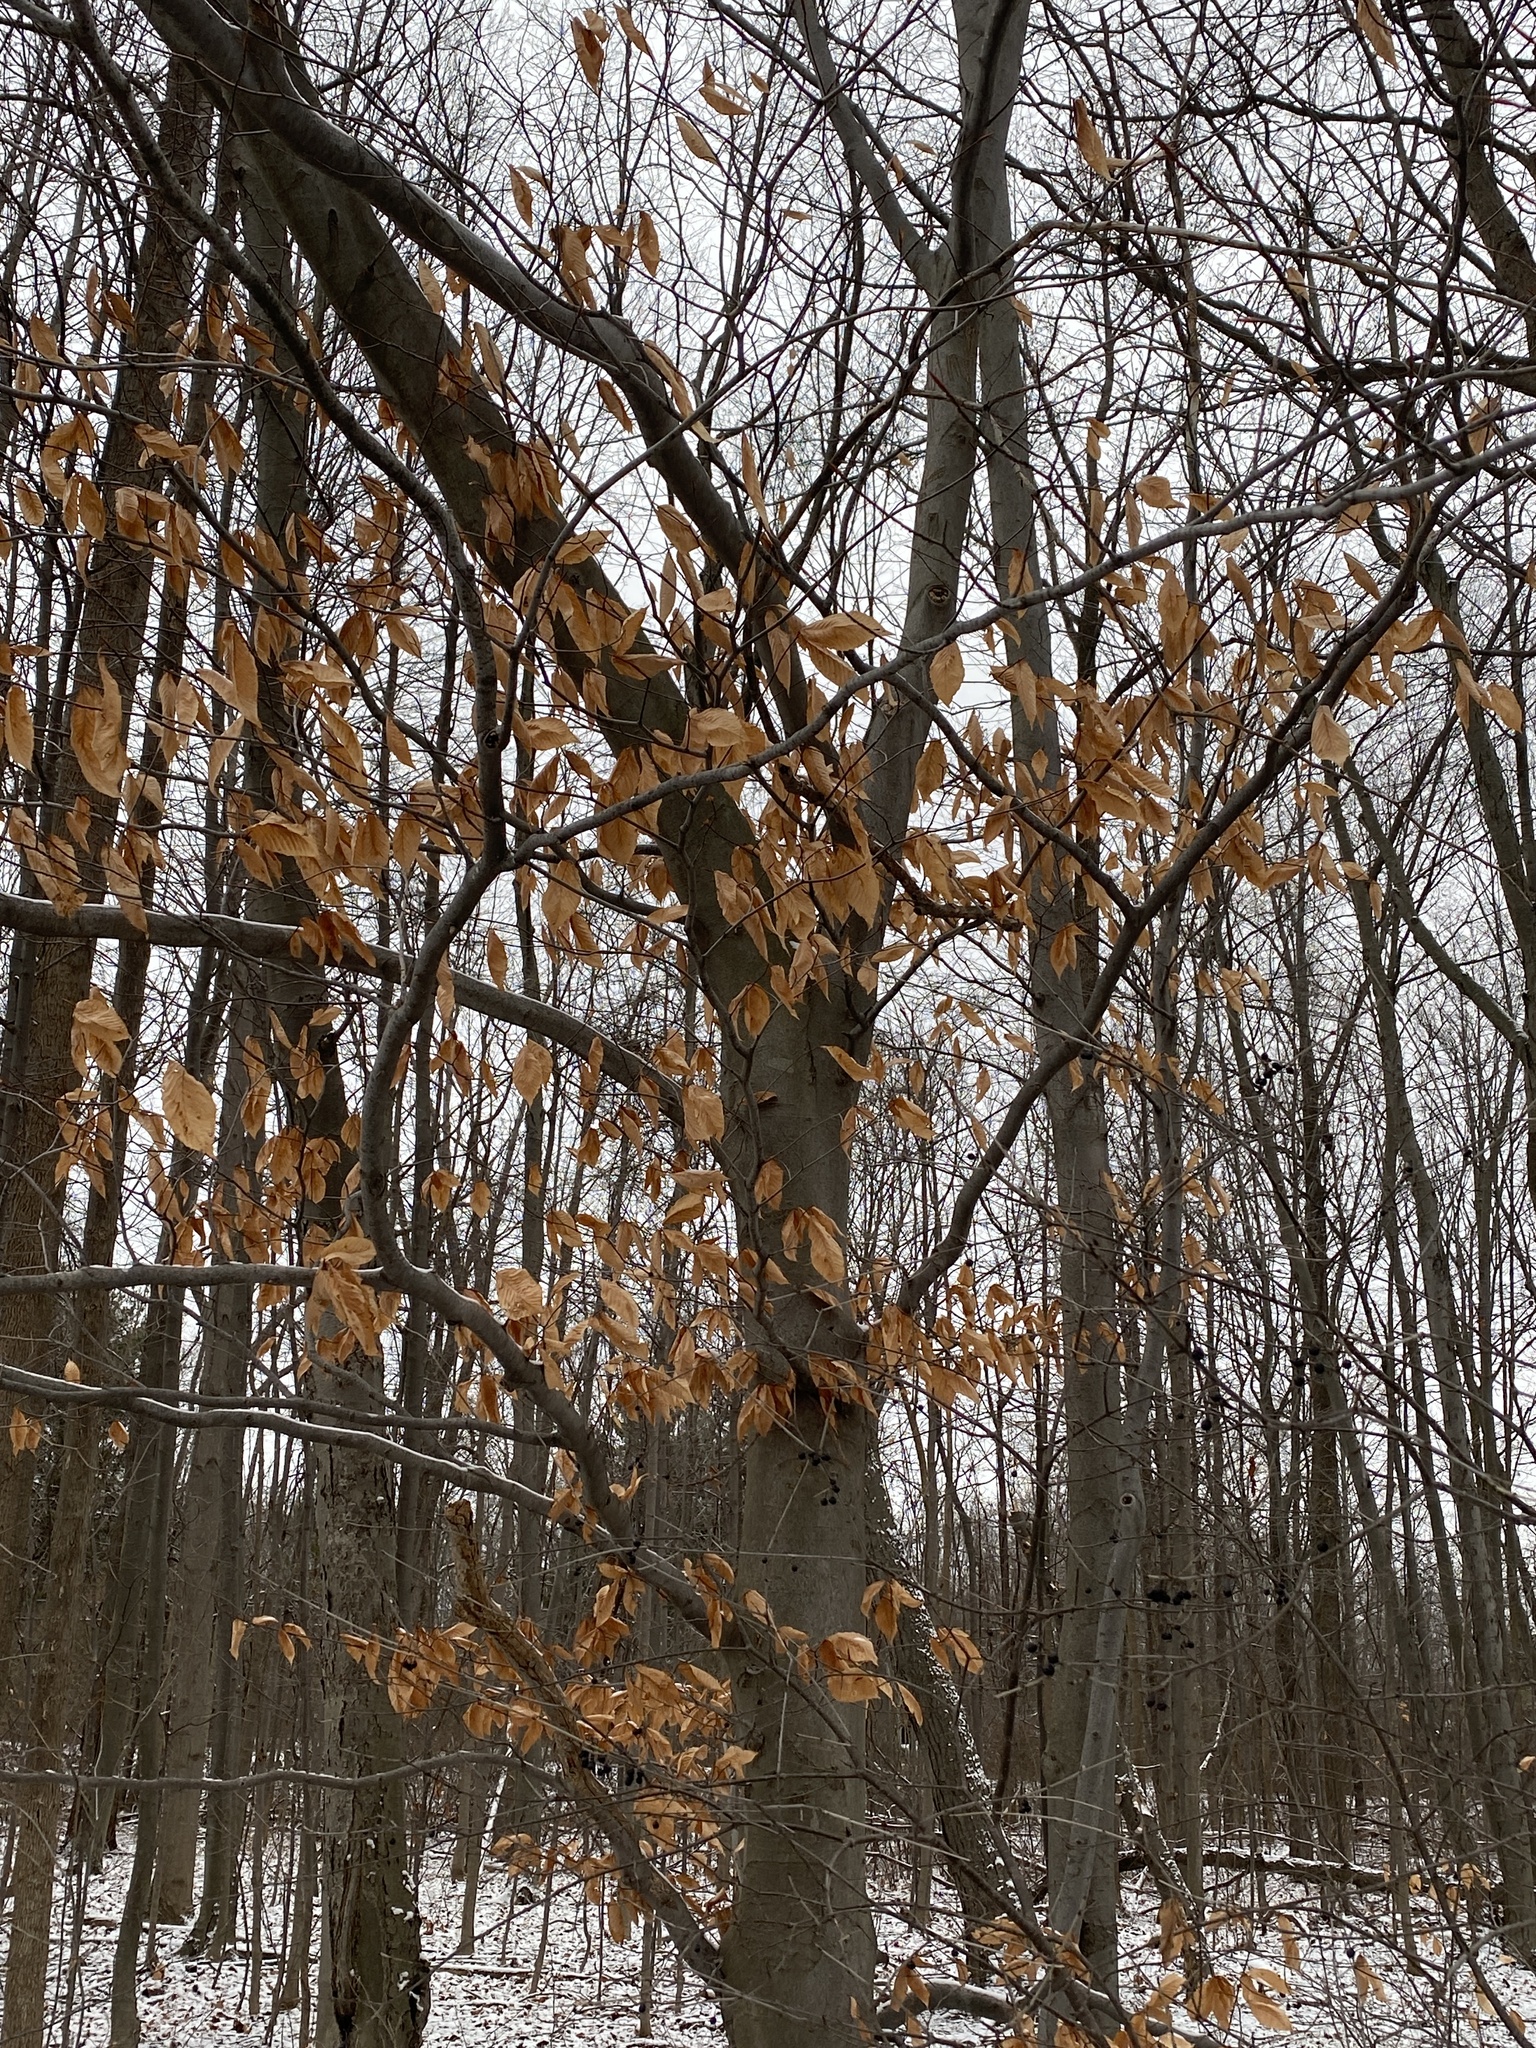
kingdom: Plantae
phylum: Tracheophyta
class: Magnoliopsida
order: Fagales
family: Fagaceae
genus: Fagus
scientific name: Fagus grandifolia
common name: American beech
